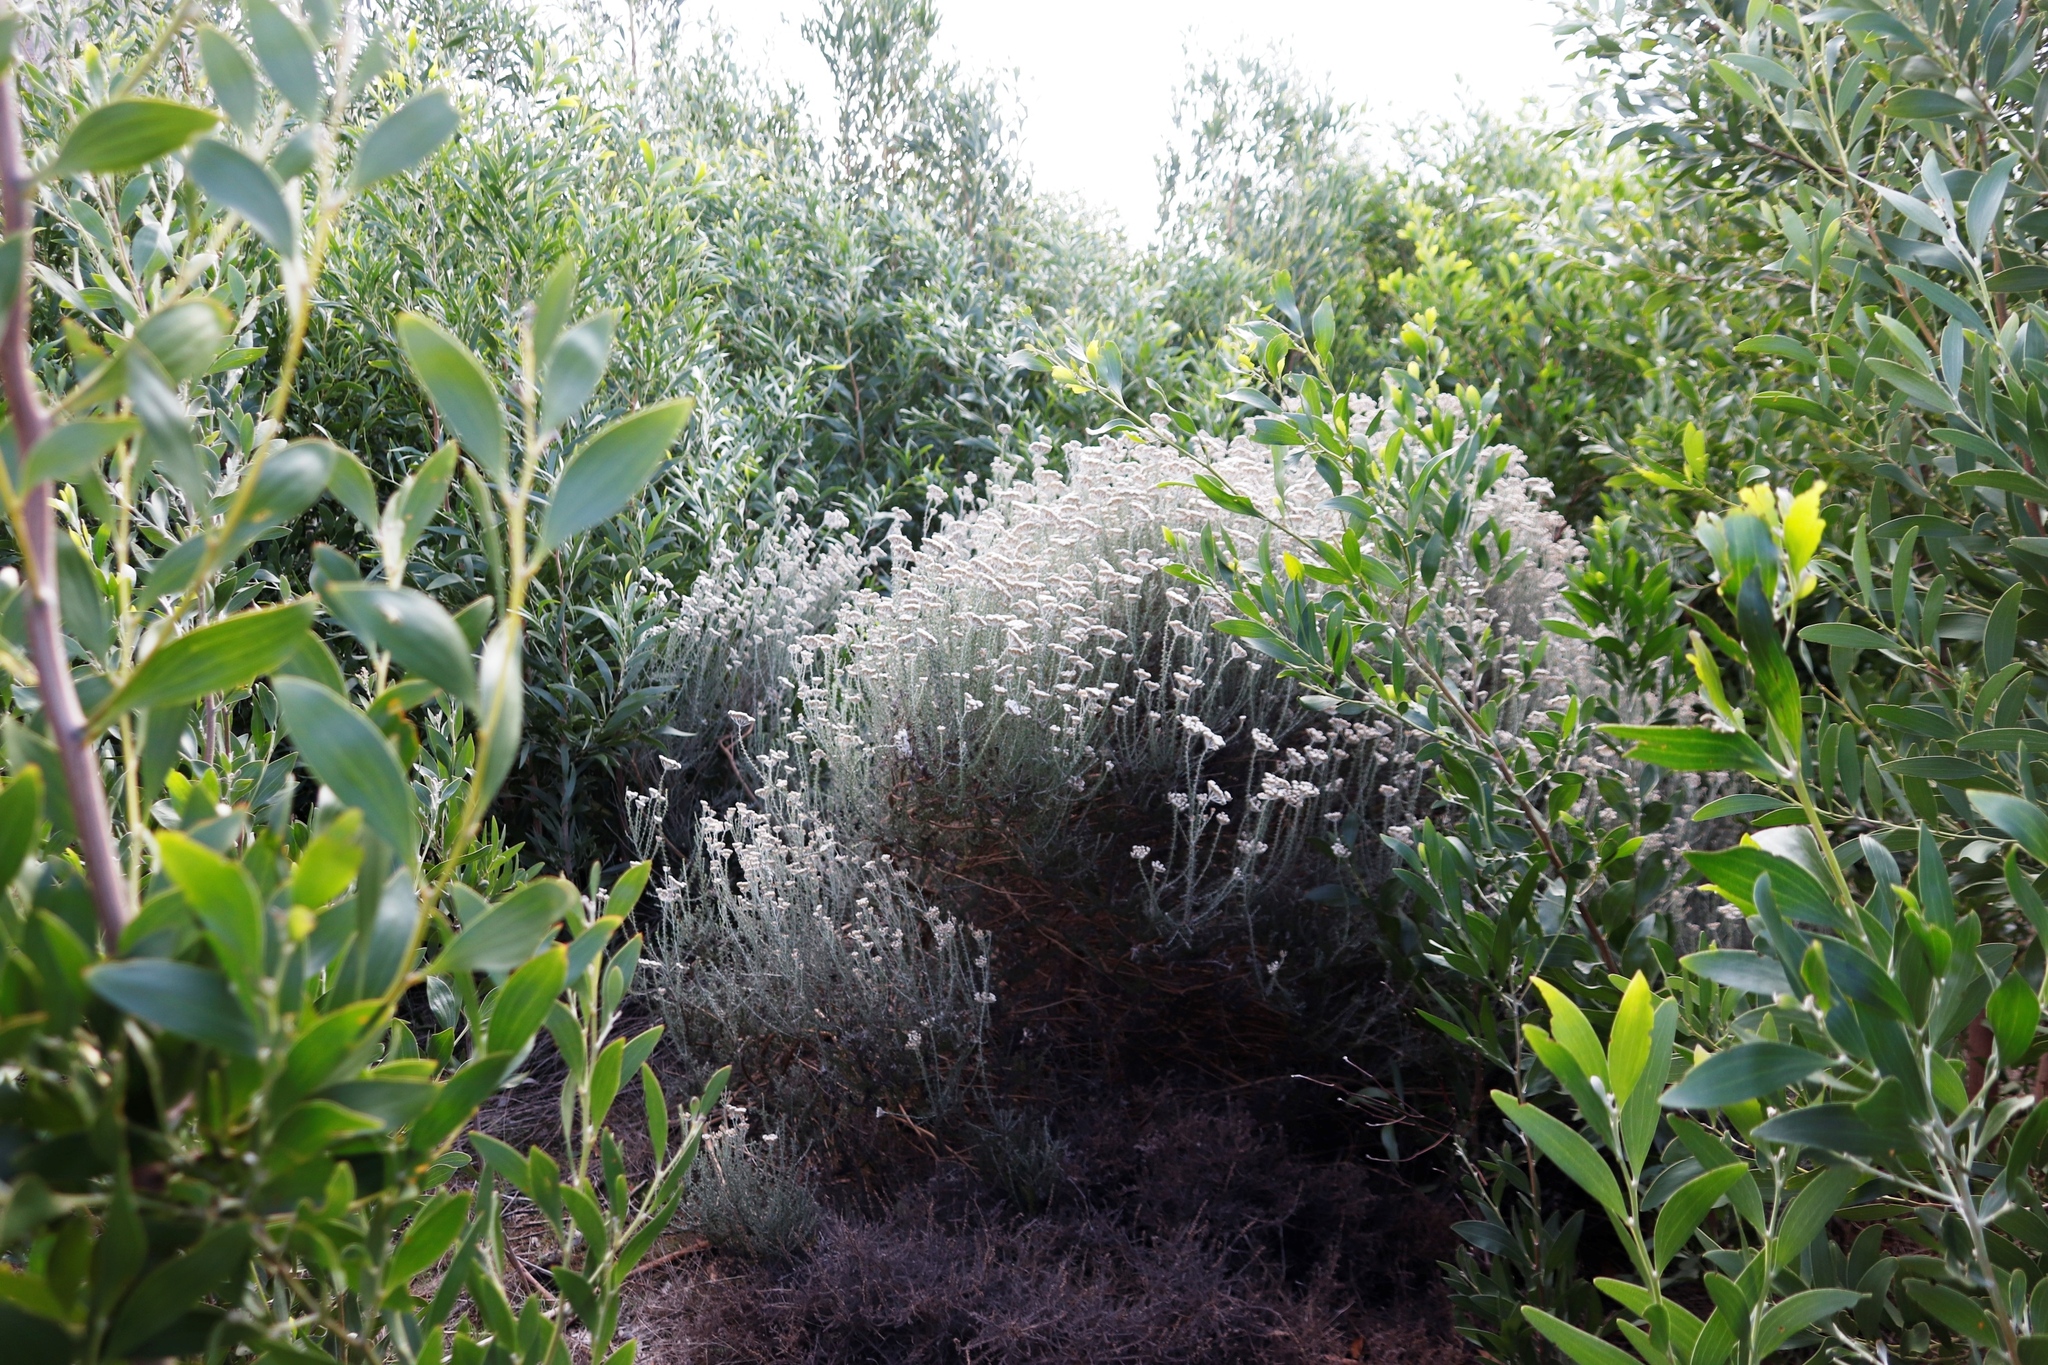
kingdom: Plantae
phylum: Tracheophyta
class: Magnoliopsida
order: Asterales
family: Asteraceae
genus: Metalasia
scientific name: Metalasia densa
